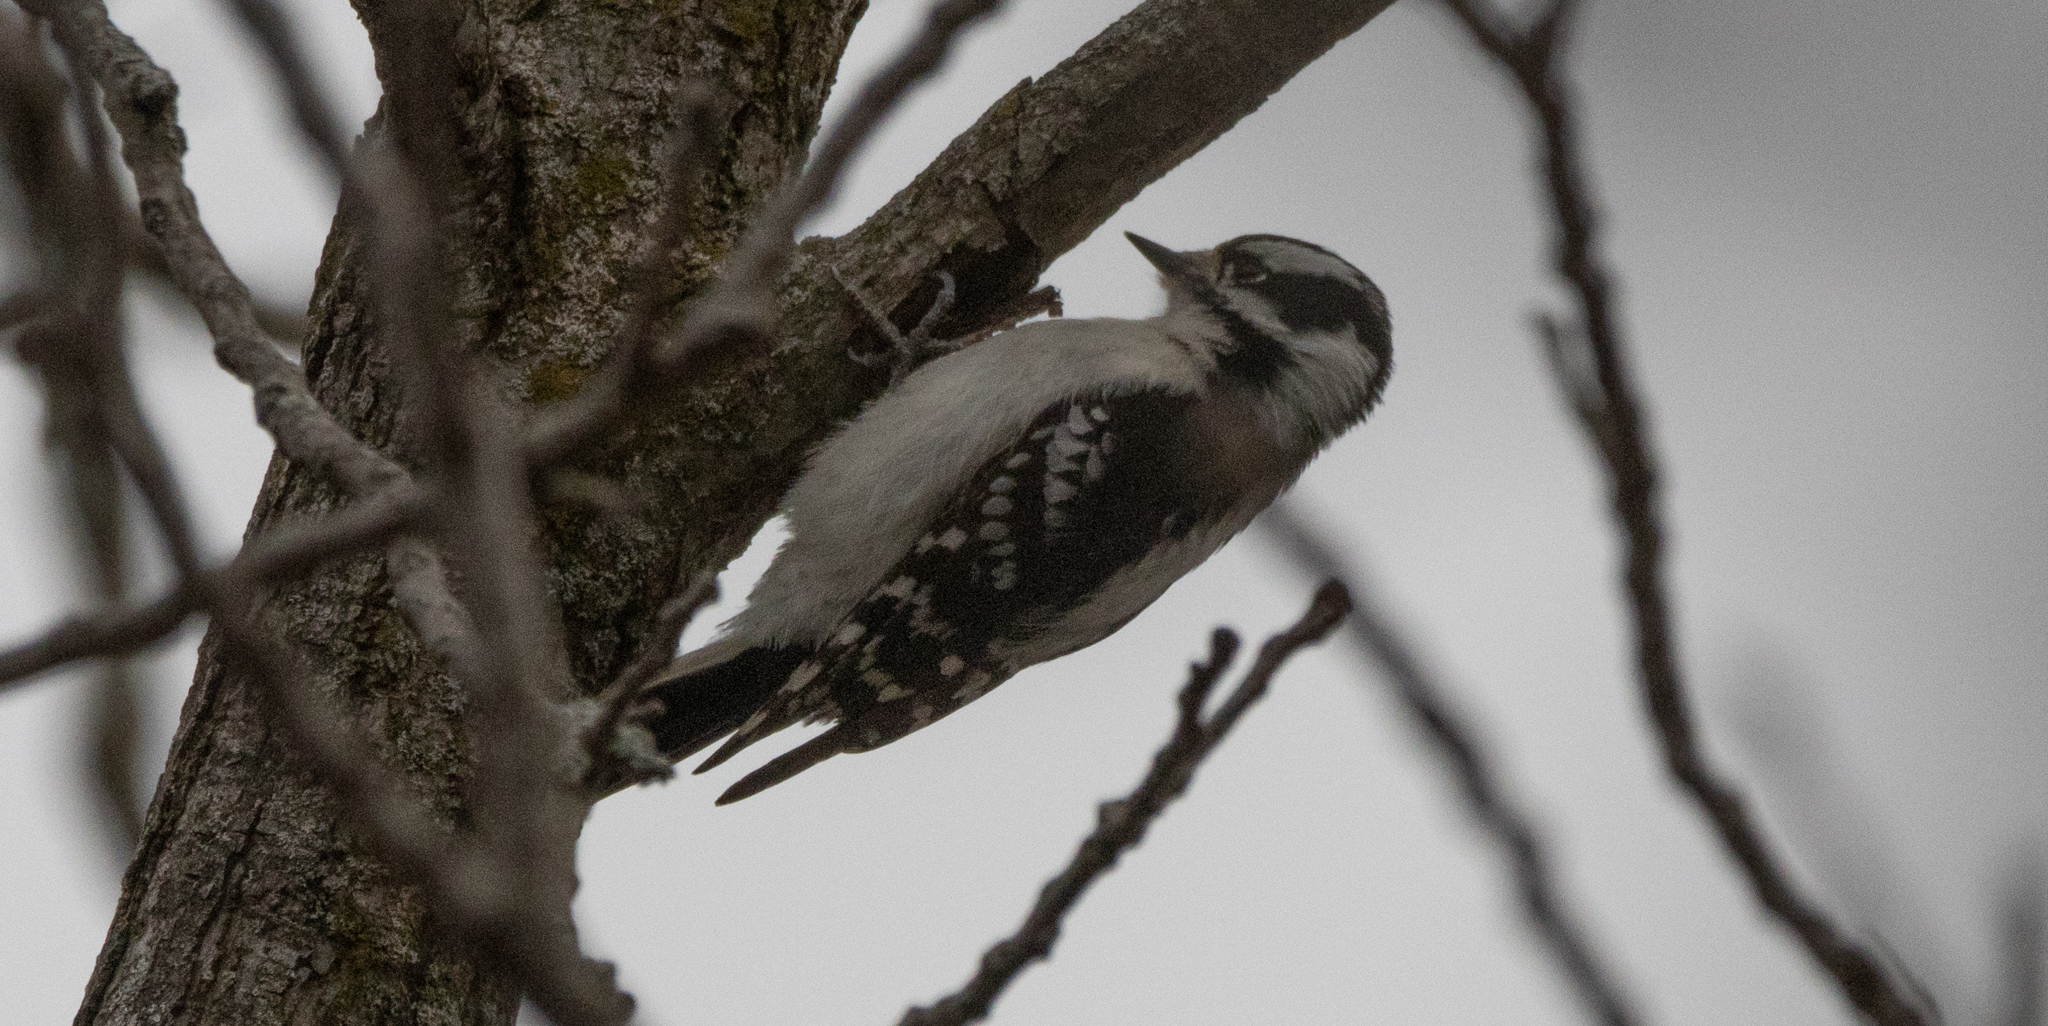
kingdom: Animalia
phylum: Chordata
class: Aves
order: Piciformes
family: Picidae
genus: Dryobates
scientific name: Dryobates pubescens
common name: Downy woodpecker
